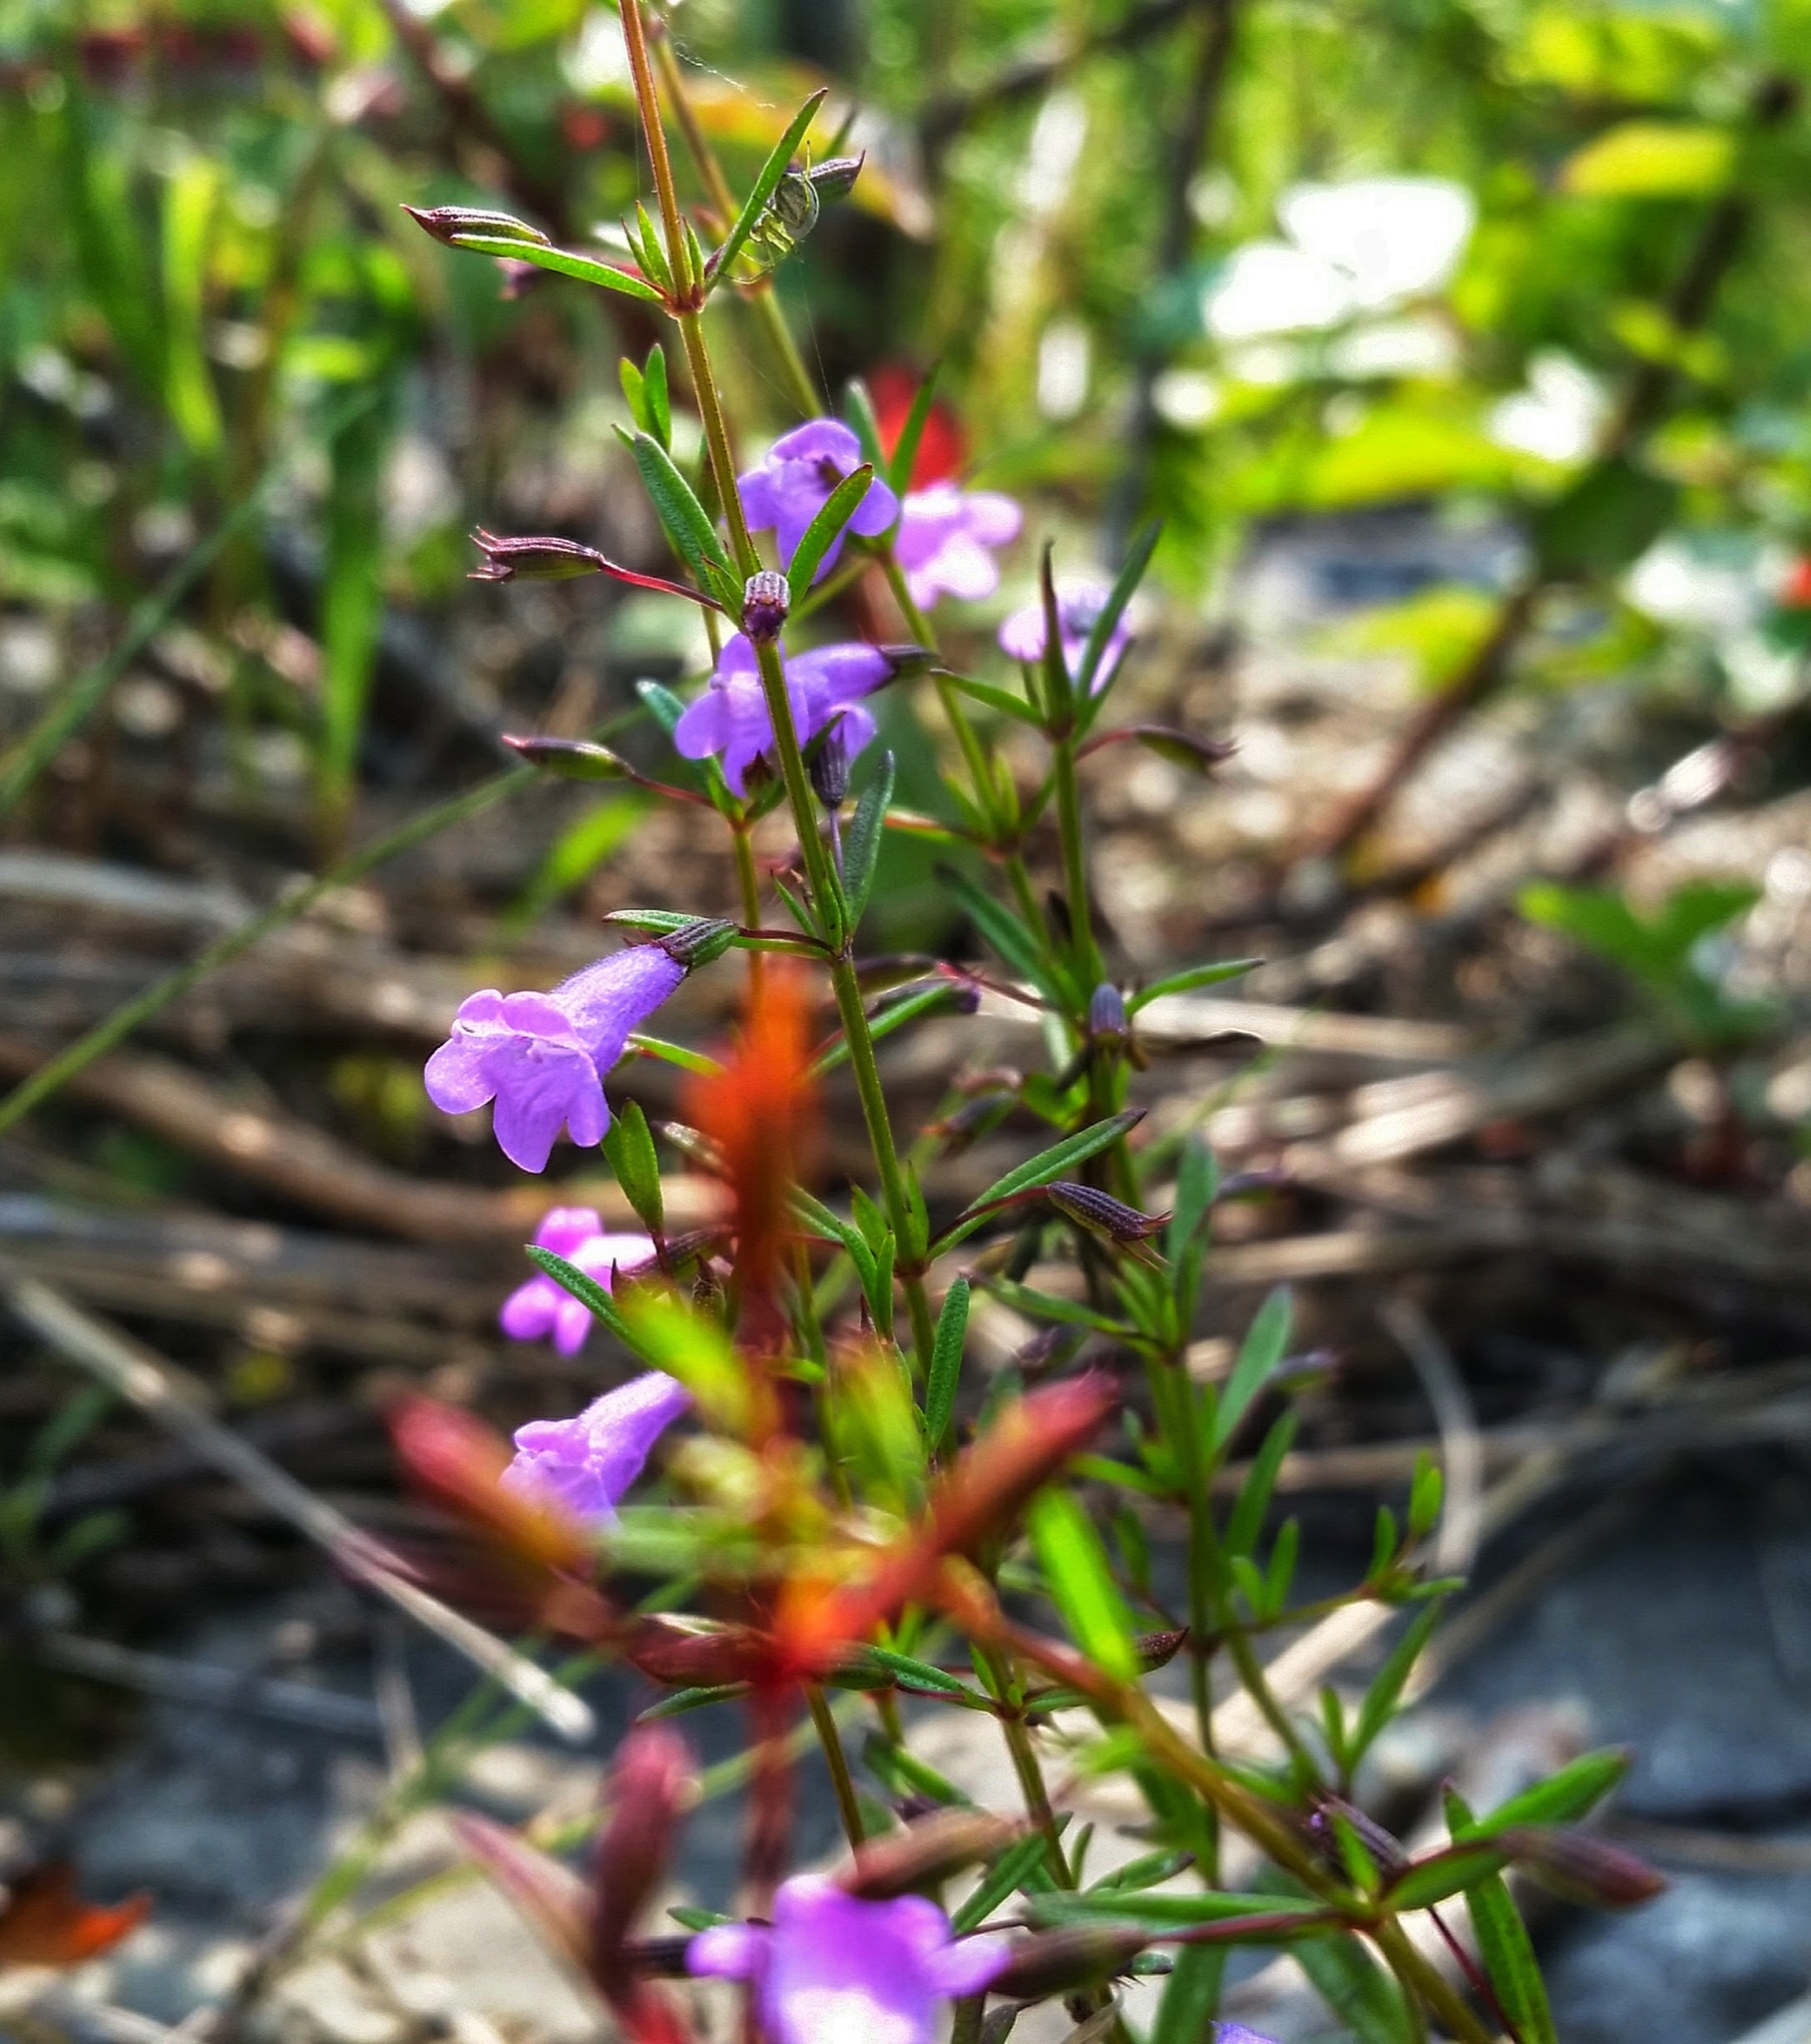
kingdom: Plantae
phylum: Tracheophyta
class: Magnoliopsida
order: Lamiales
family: Orobanchaceae
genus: Agalinis
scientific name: Agalinis tenuifolia
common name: Slender agalinis
